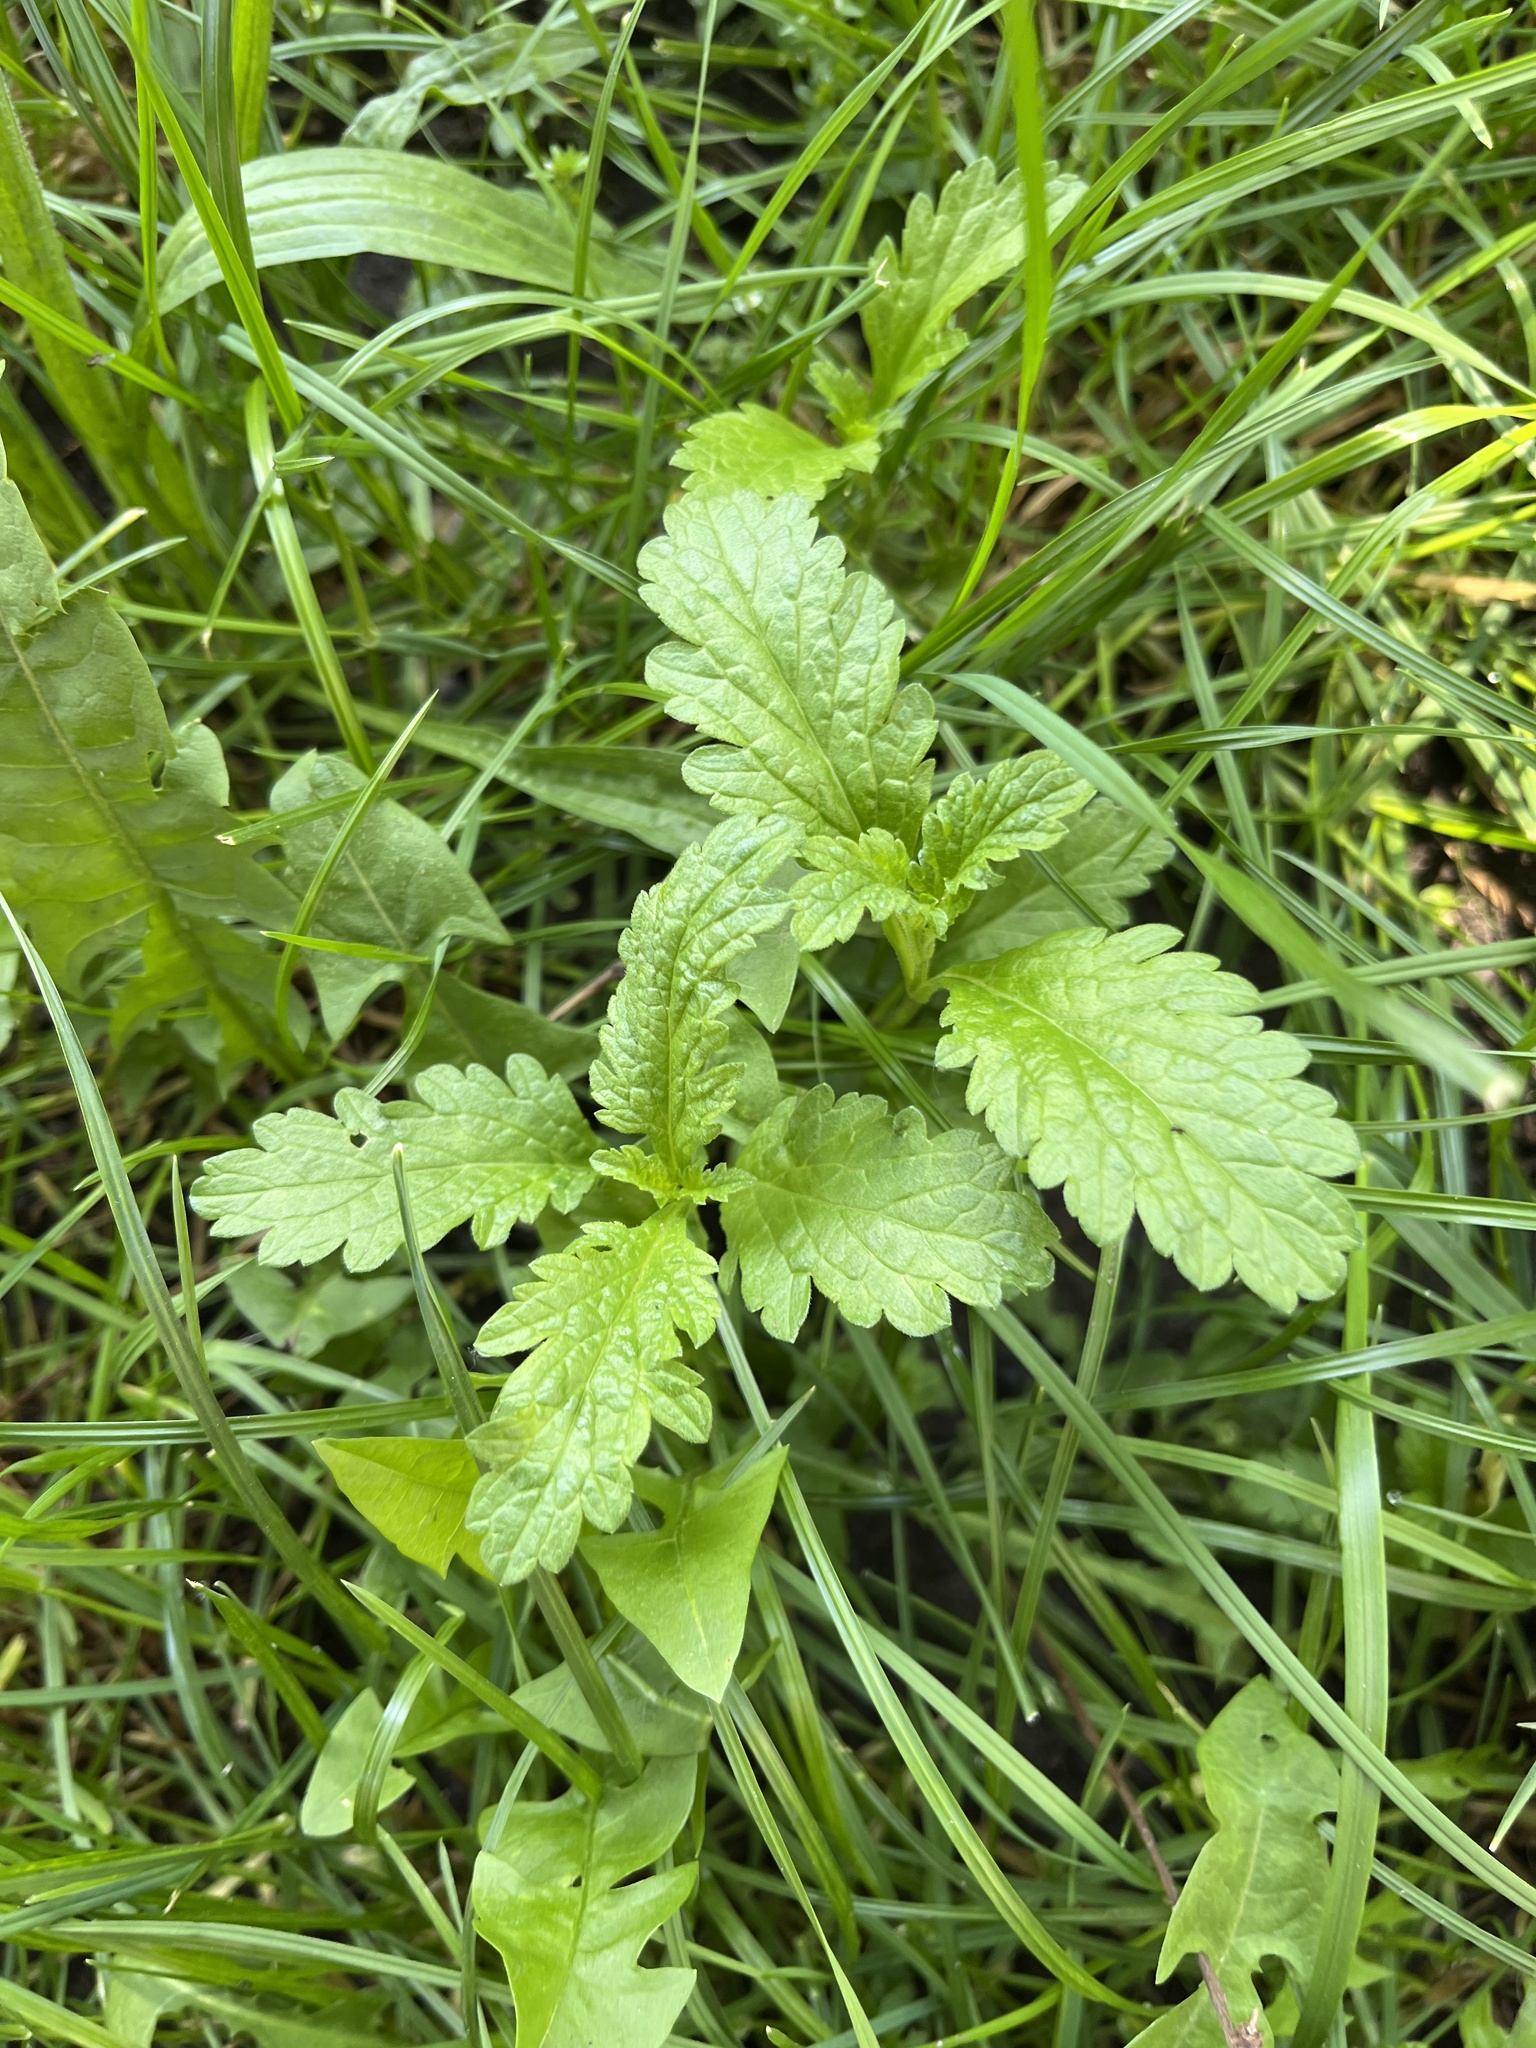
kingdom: Plantae
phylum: Tracheophyta
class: Magnoliopsida
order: Lamiales
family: Verbenaceae
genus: Verbena
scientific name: Verbena officinalis
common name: Vervain
